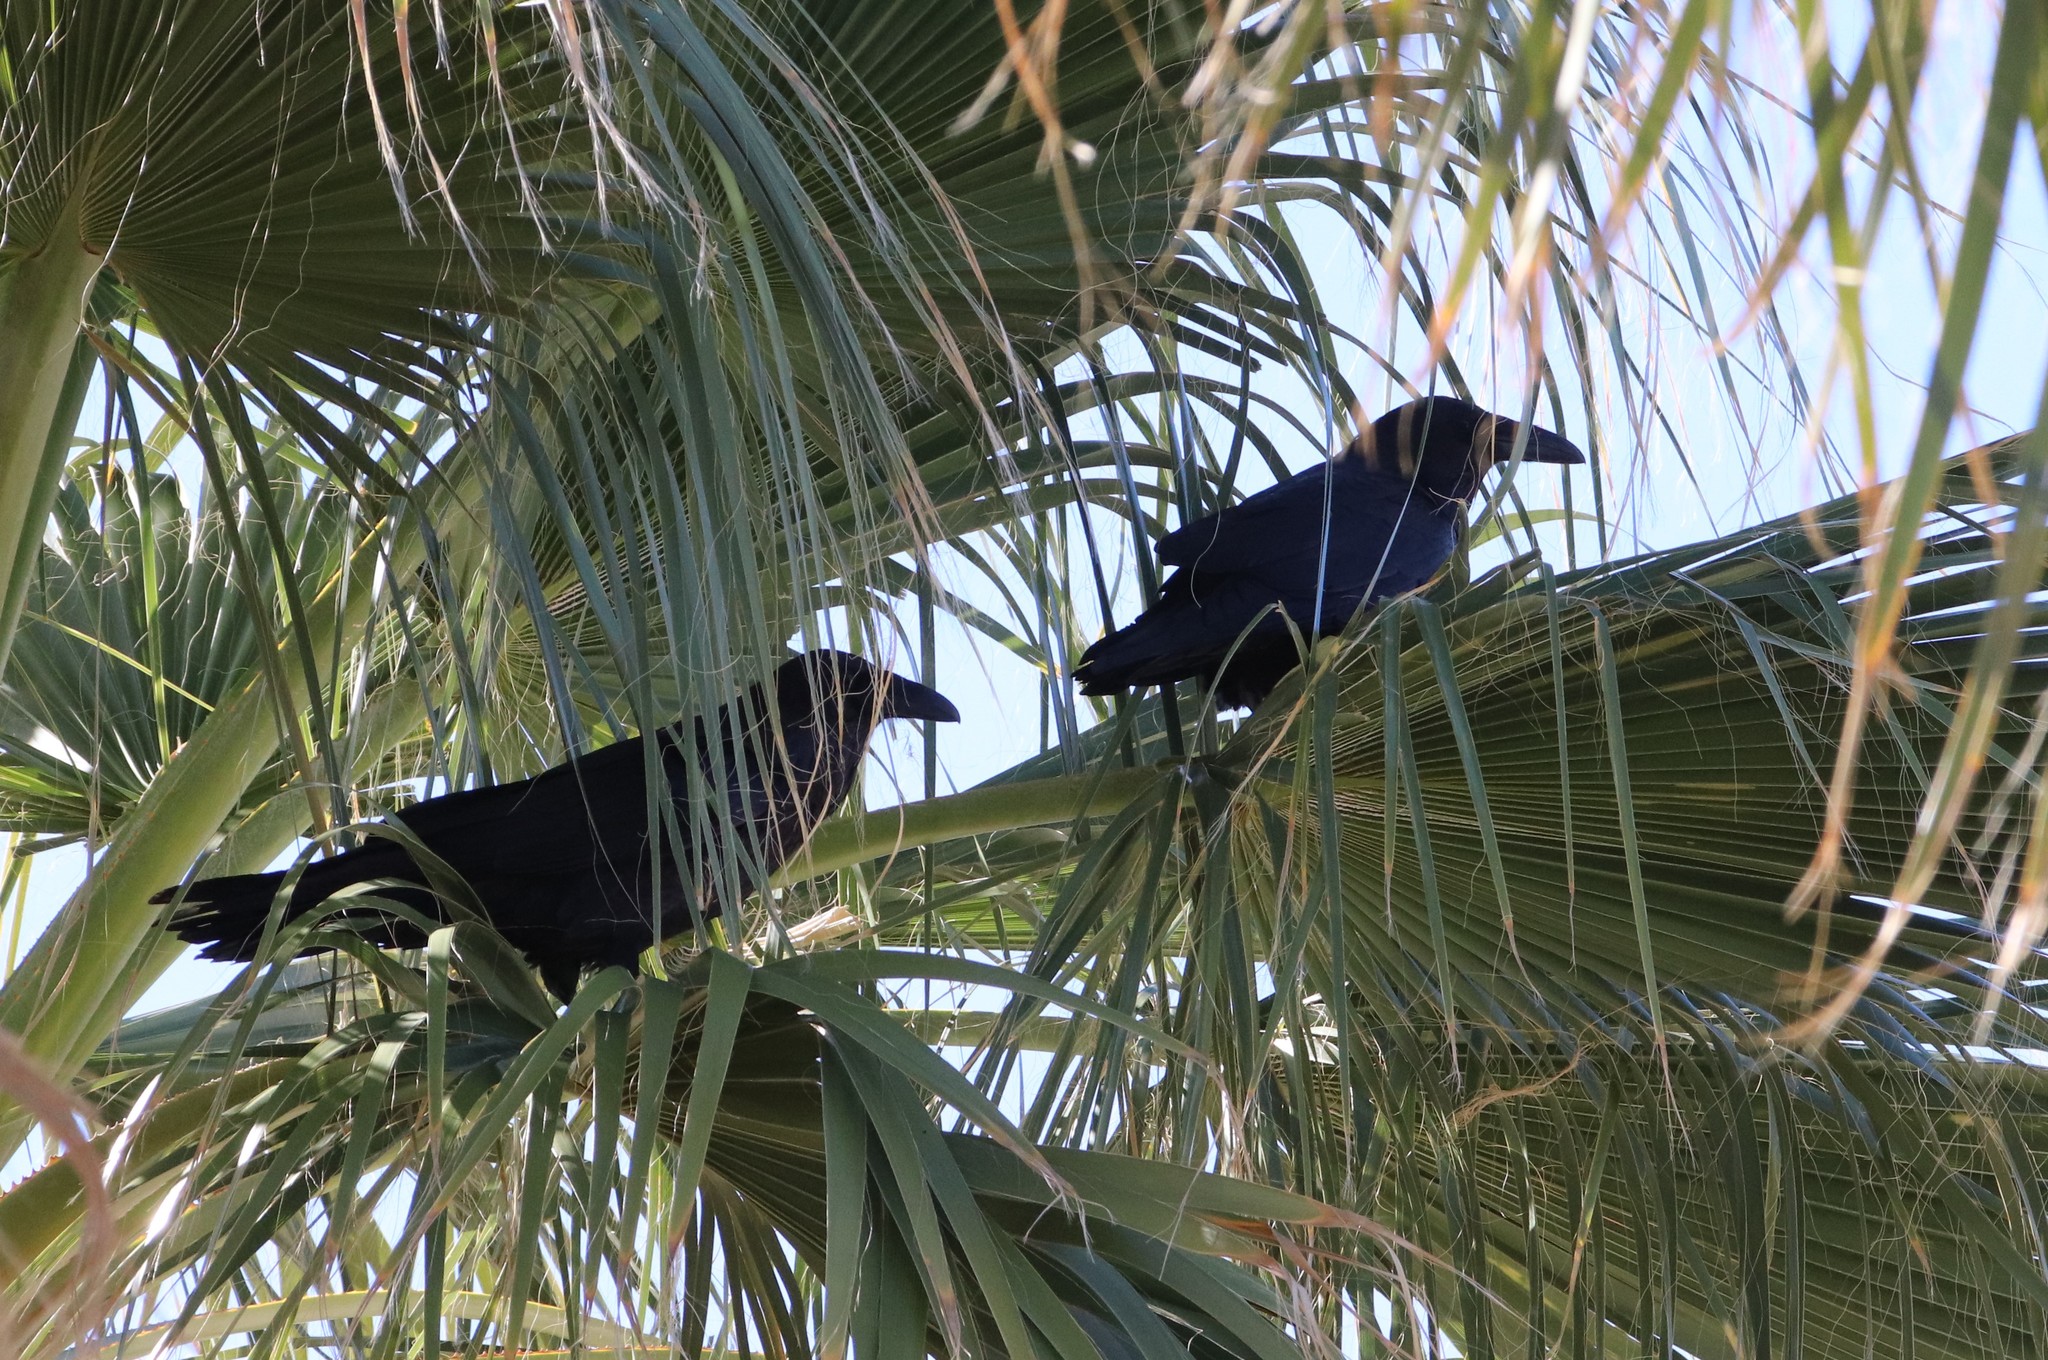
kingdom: Animalia
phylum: Chordata
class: Aves
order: Passeriformes
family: Corvidae
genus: Corvus
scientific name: Corvus corax
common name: Common raven
